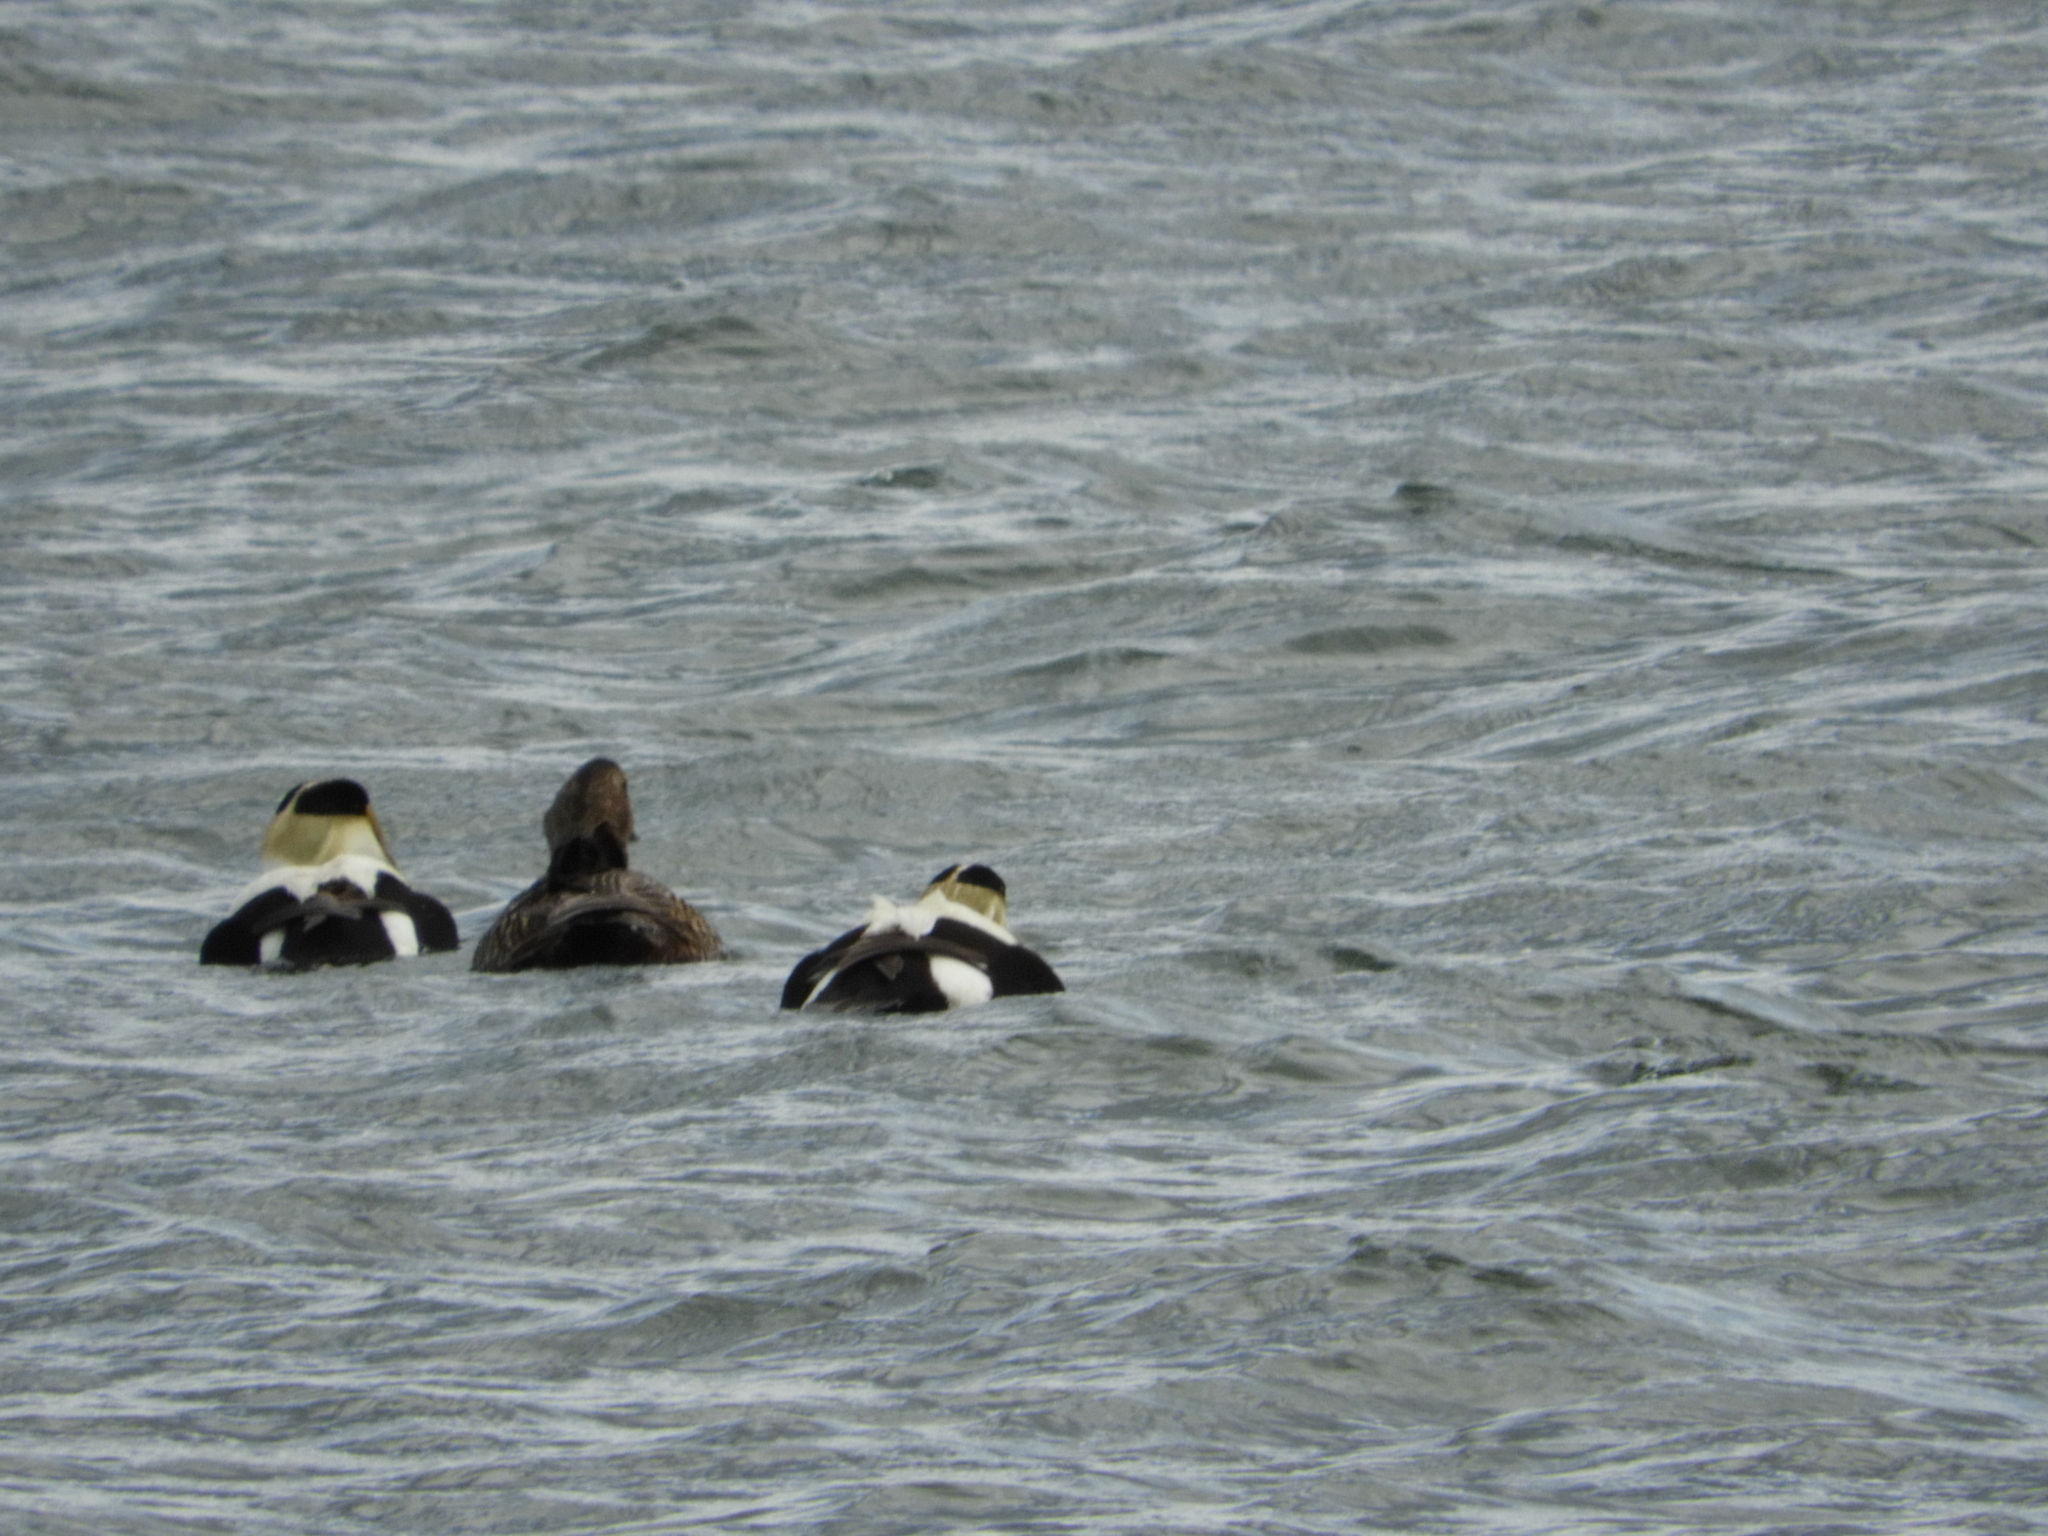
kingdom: Animalia
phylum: Chordata
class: Aves
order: Anseriformes
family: Anatidae
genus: Somateria
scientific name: Somateria mollissima
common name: Common eider
